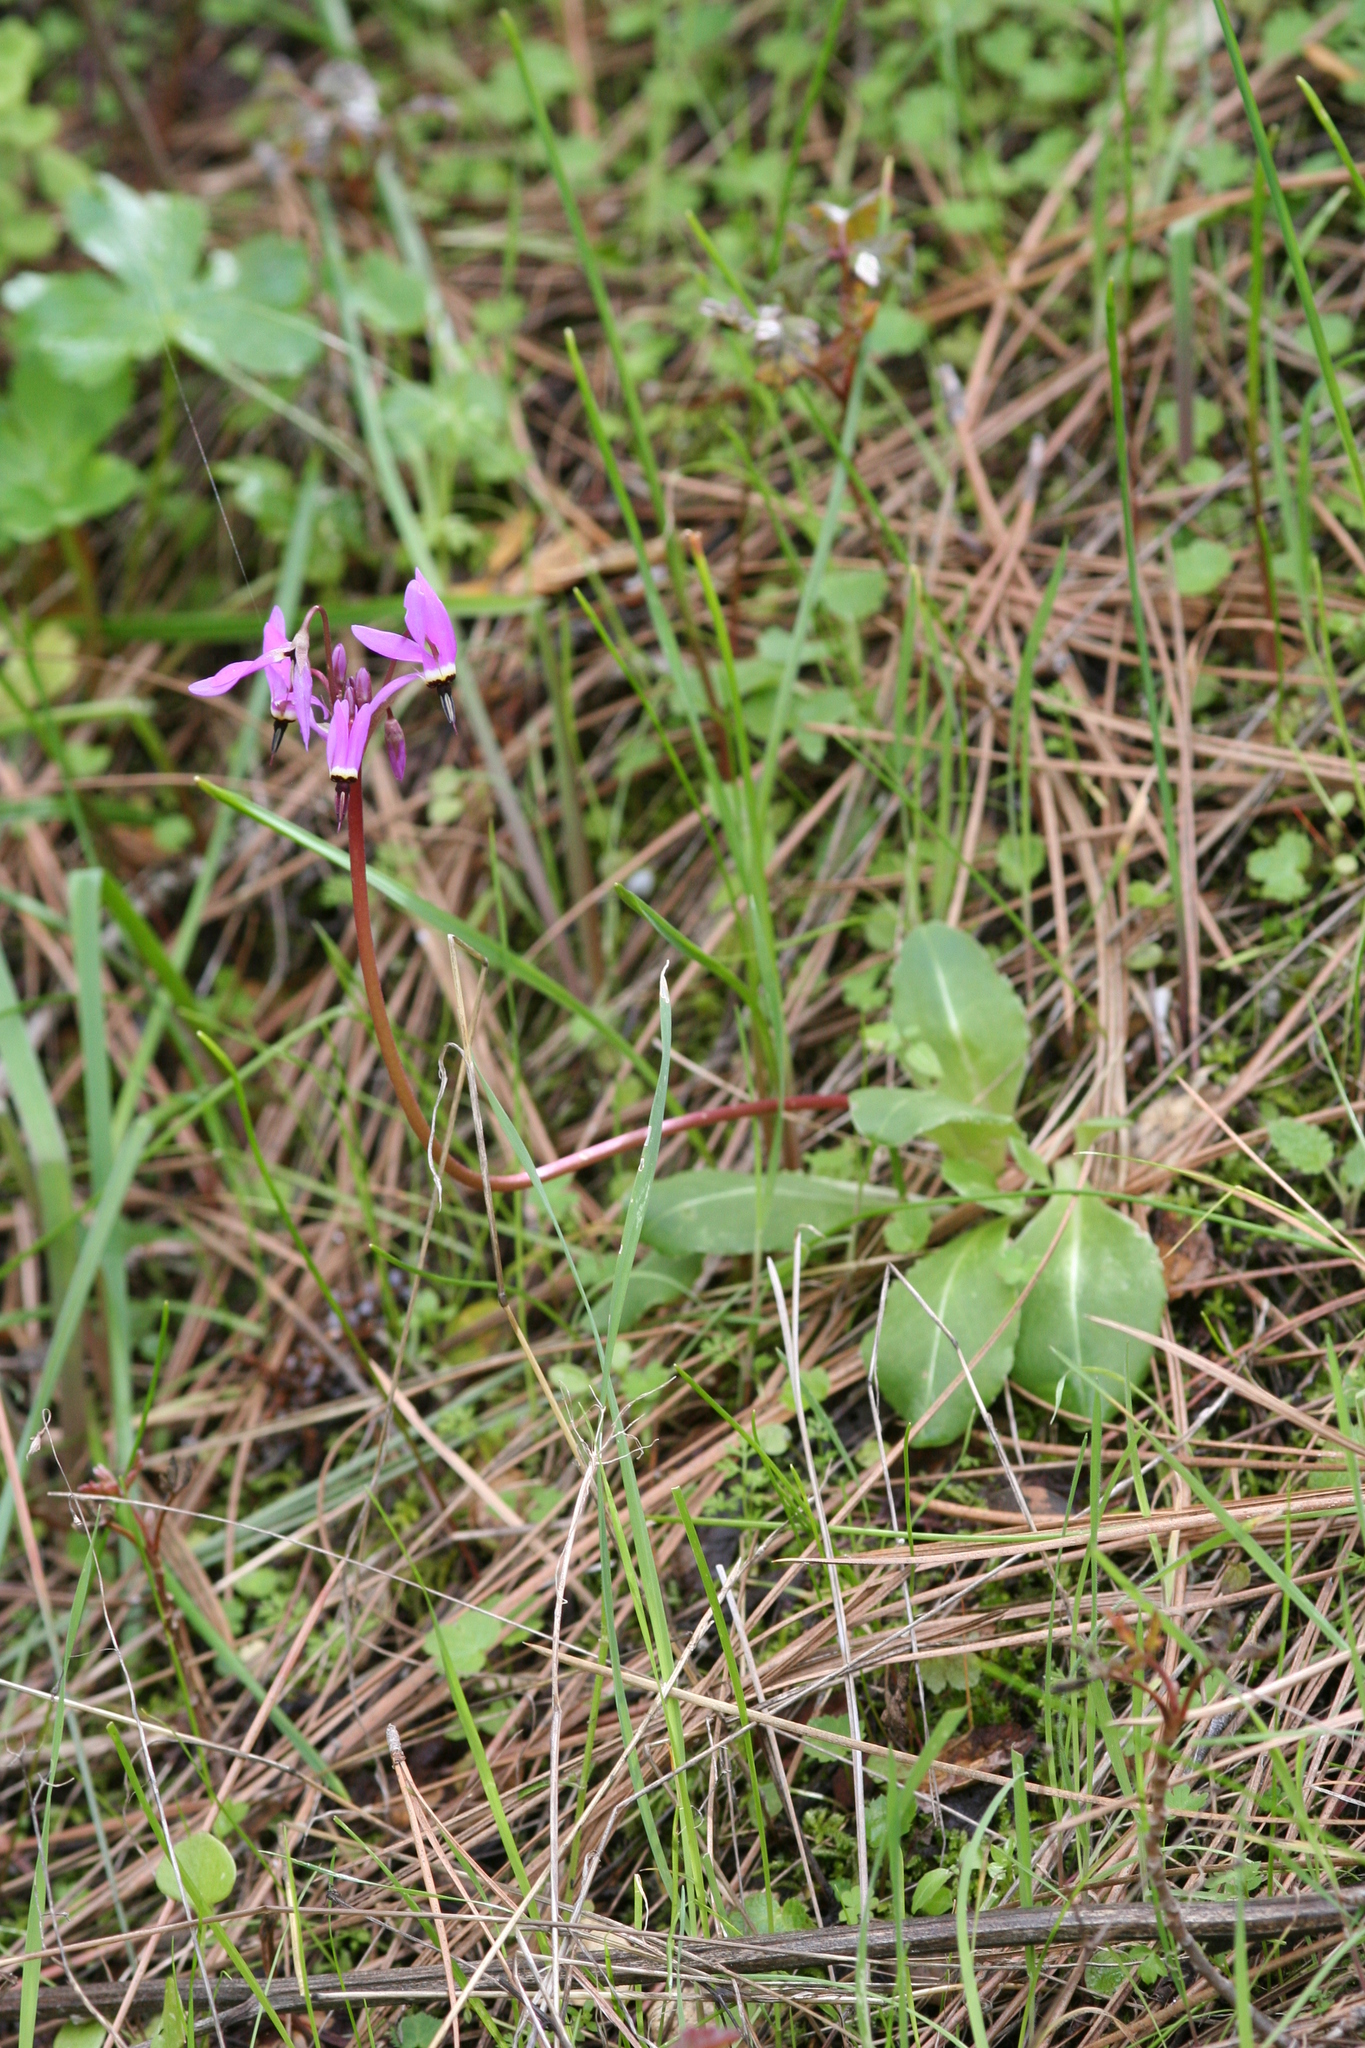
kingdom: Plantae
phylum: Tracheophyta
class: Magnoliopsida
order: Ericales
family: Primulaceae
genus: Dodecatheon
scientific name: Dodecatheon hendersonii
